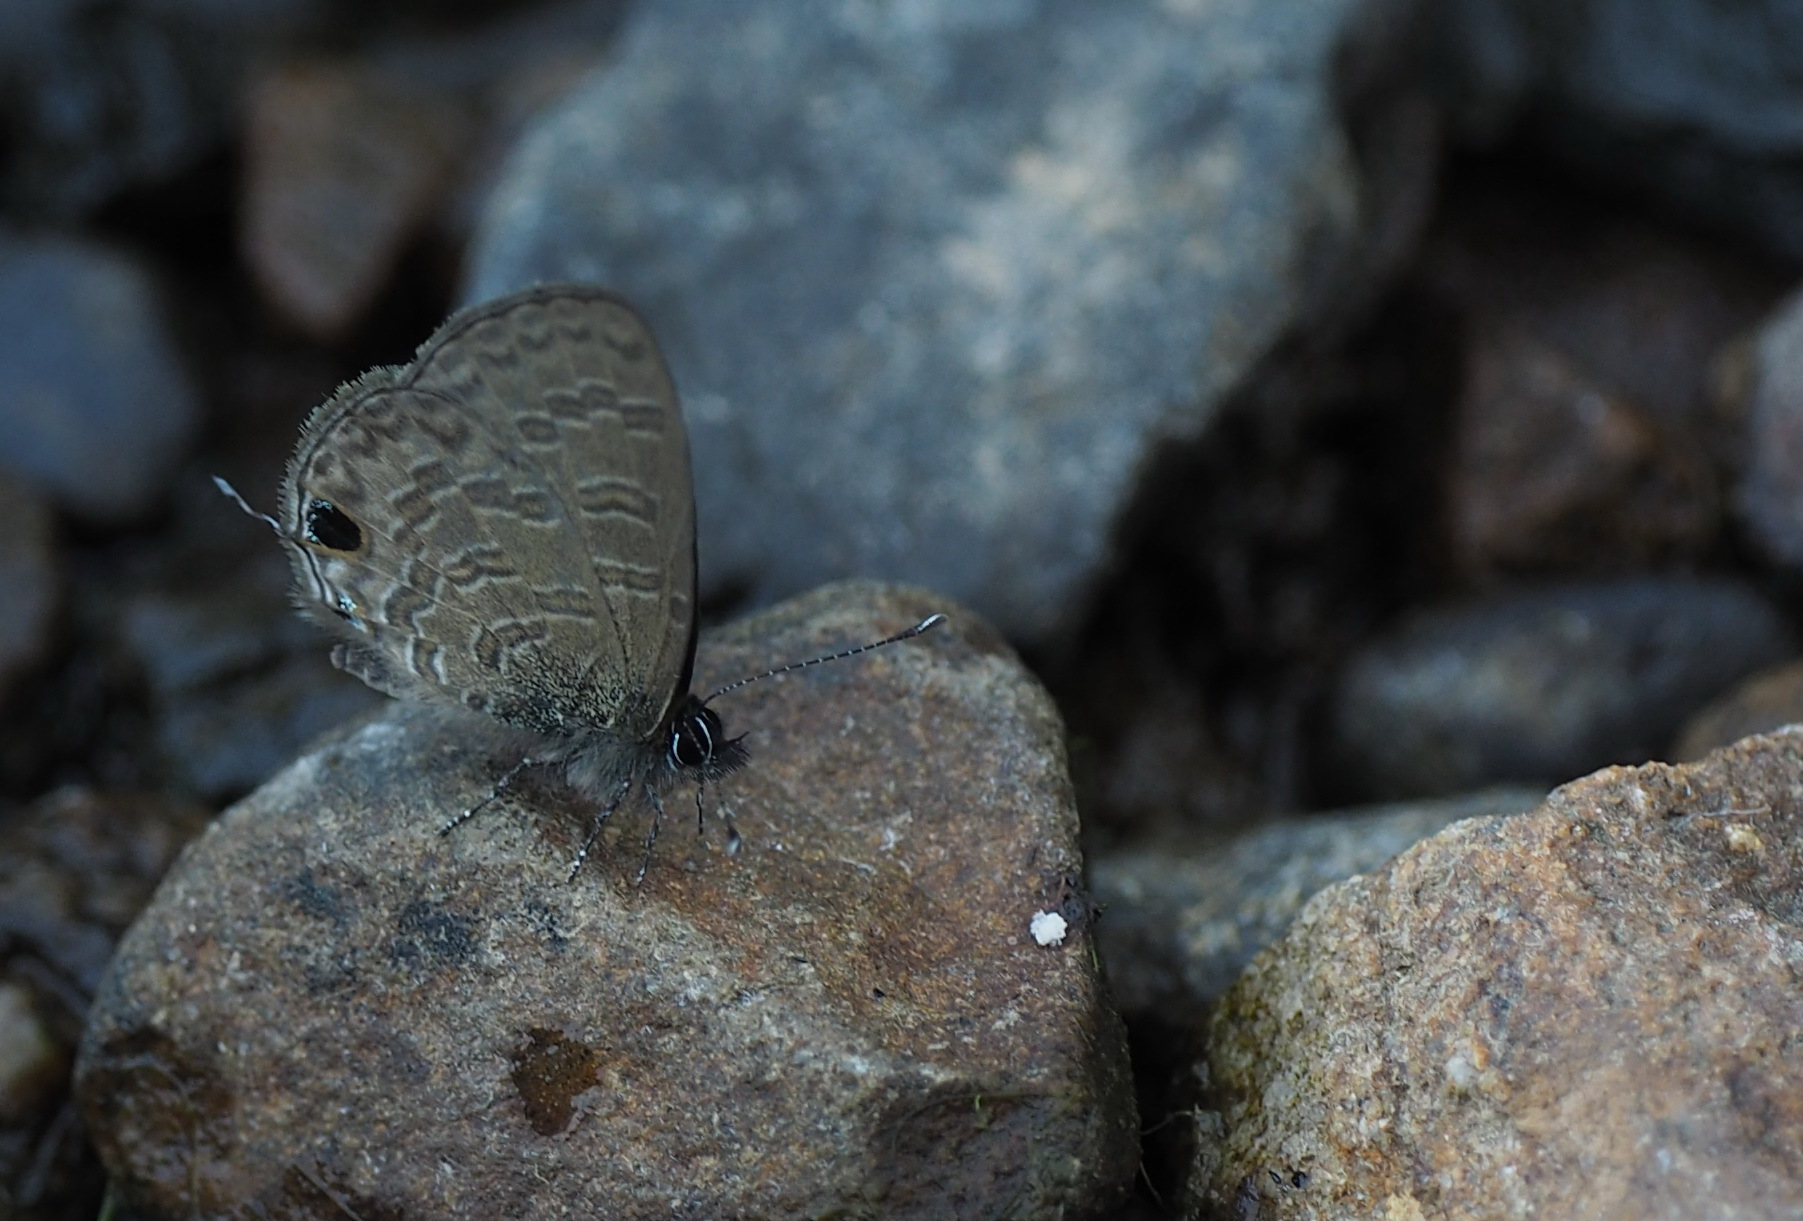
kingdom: Animalia
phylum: Arthropoda
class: Insecta
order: Lepidoptera
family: Lycaenidae
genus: Prosotas
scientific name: Prosotas nora
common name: Common line blue
